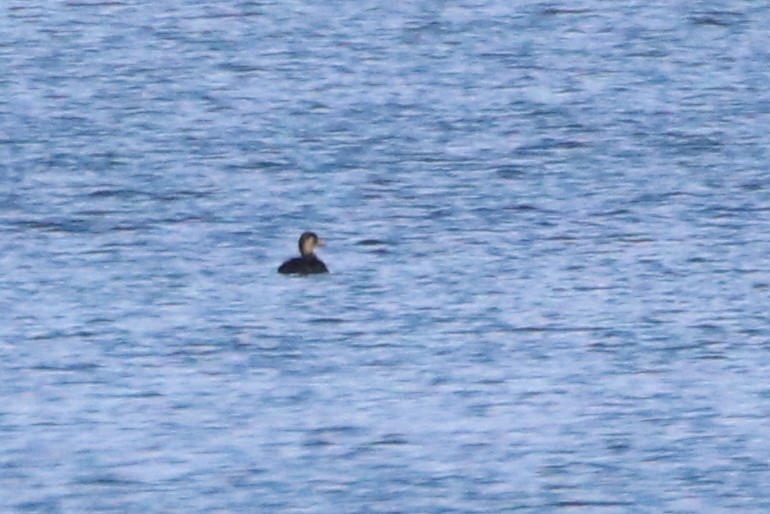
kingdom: Animalia
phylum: Chordata
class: Aves
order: Anseriformes
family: Anatidae
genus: Melanitta
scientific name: Melanitta americana
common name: Black scoter
